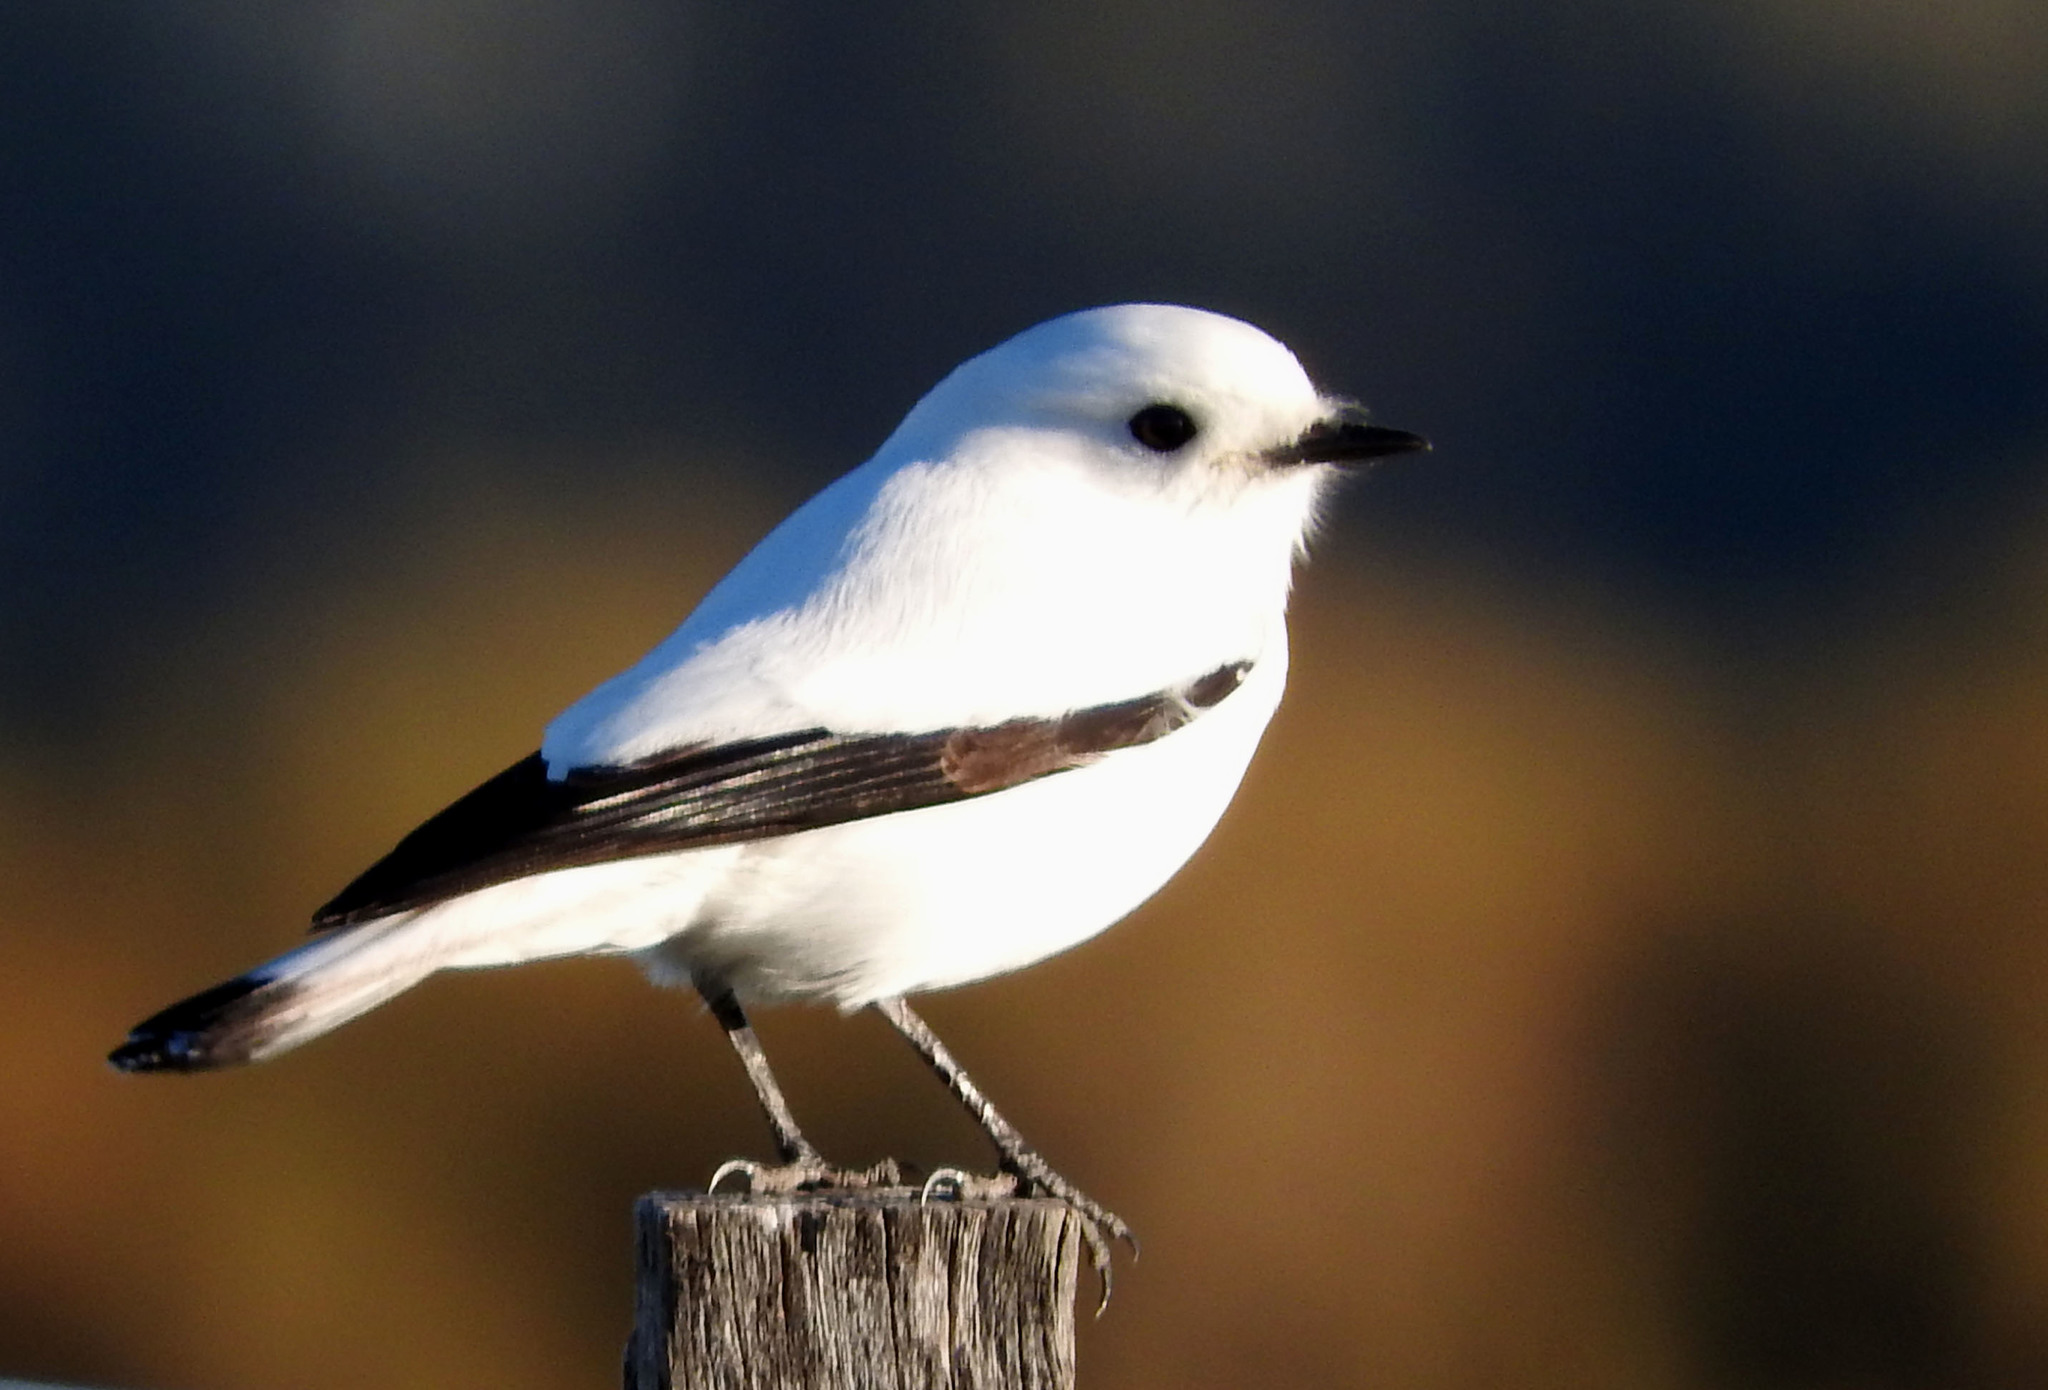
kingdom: Animalia
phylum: Chordata
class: Aves
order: Passeriformes
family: Tyrannidae
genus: Xolmis
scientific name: Xolmis irupero
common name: White monjita
